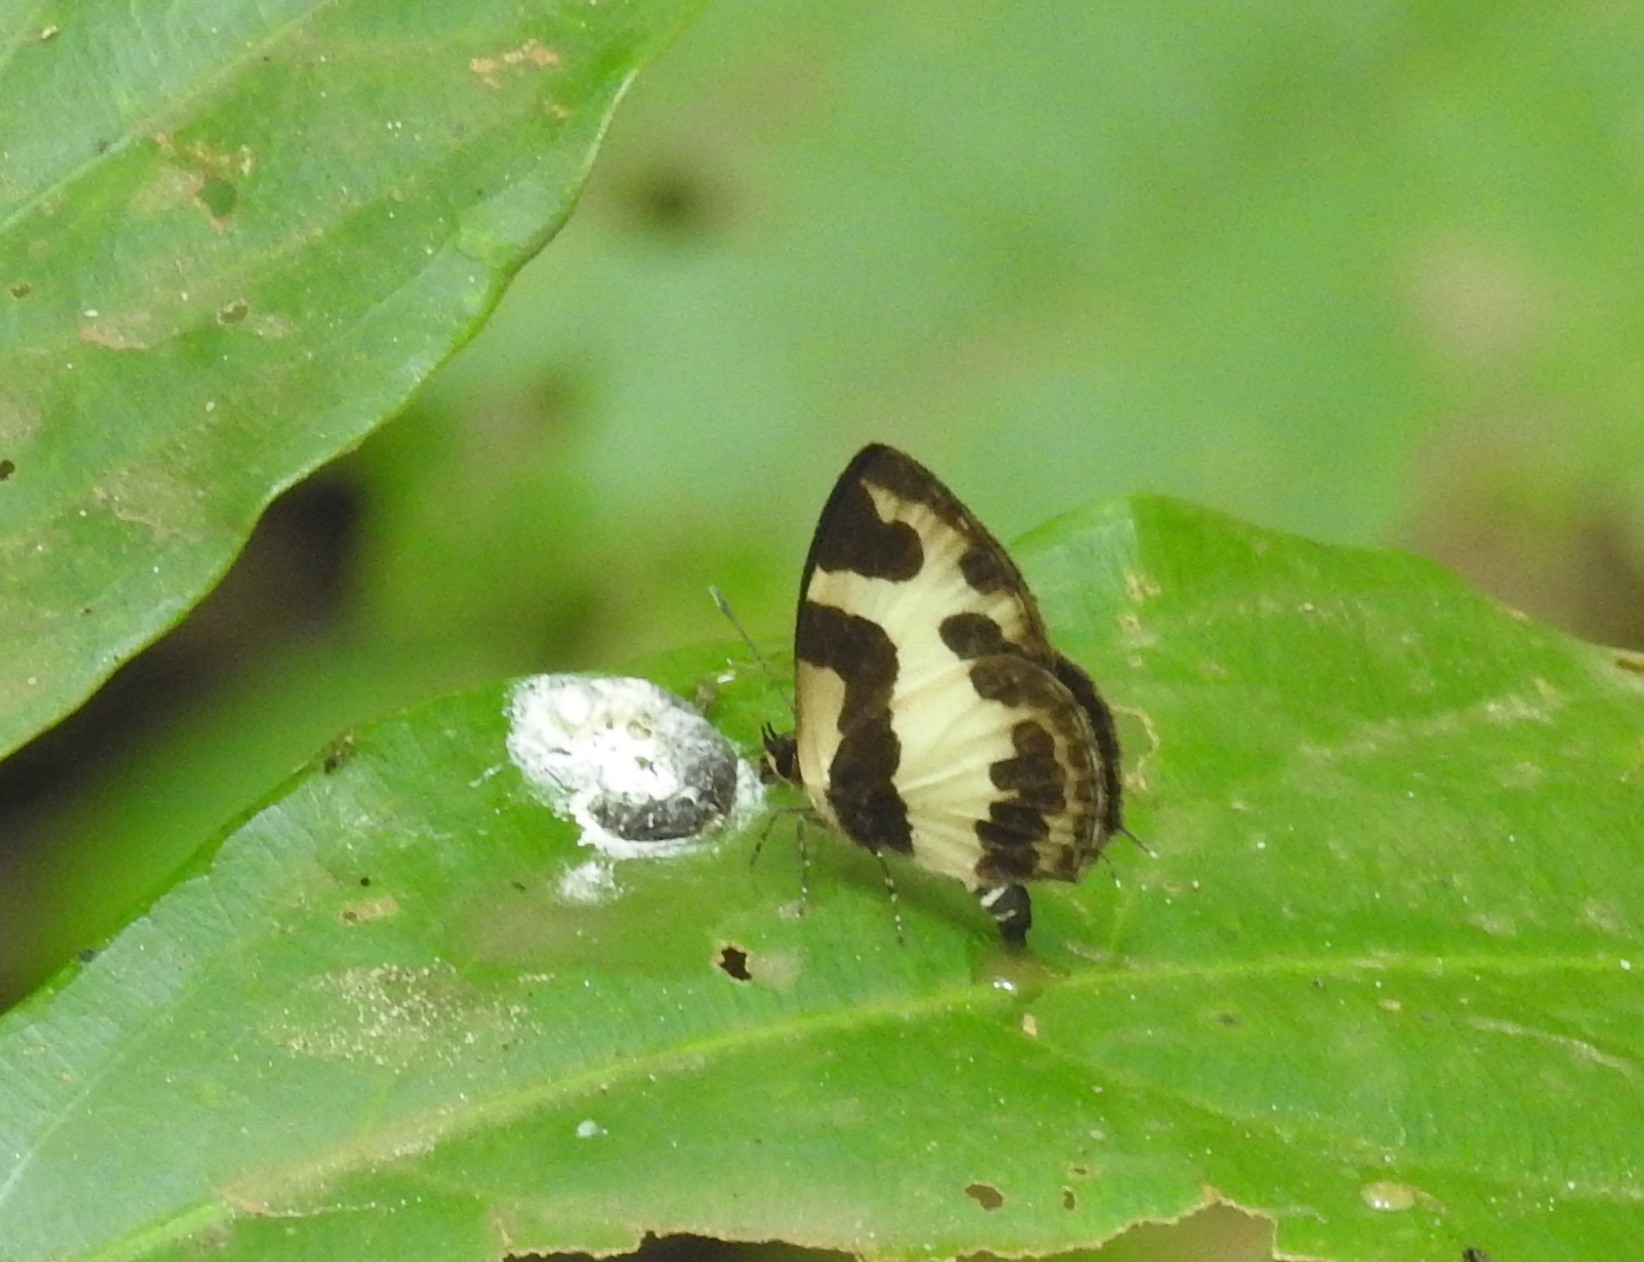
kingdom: Animalia
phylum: Arthropoda
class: Insecta
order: Lepidoptera
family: Lycaenidae
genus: Caleta
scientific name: Caleta elna
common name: Elbowed pierrot
